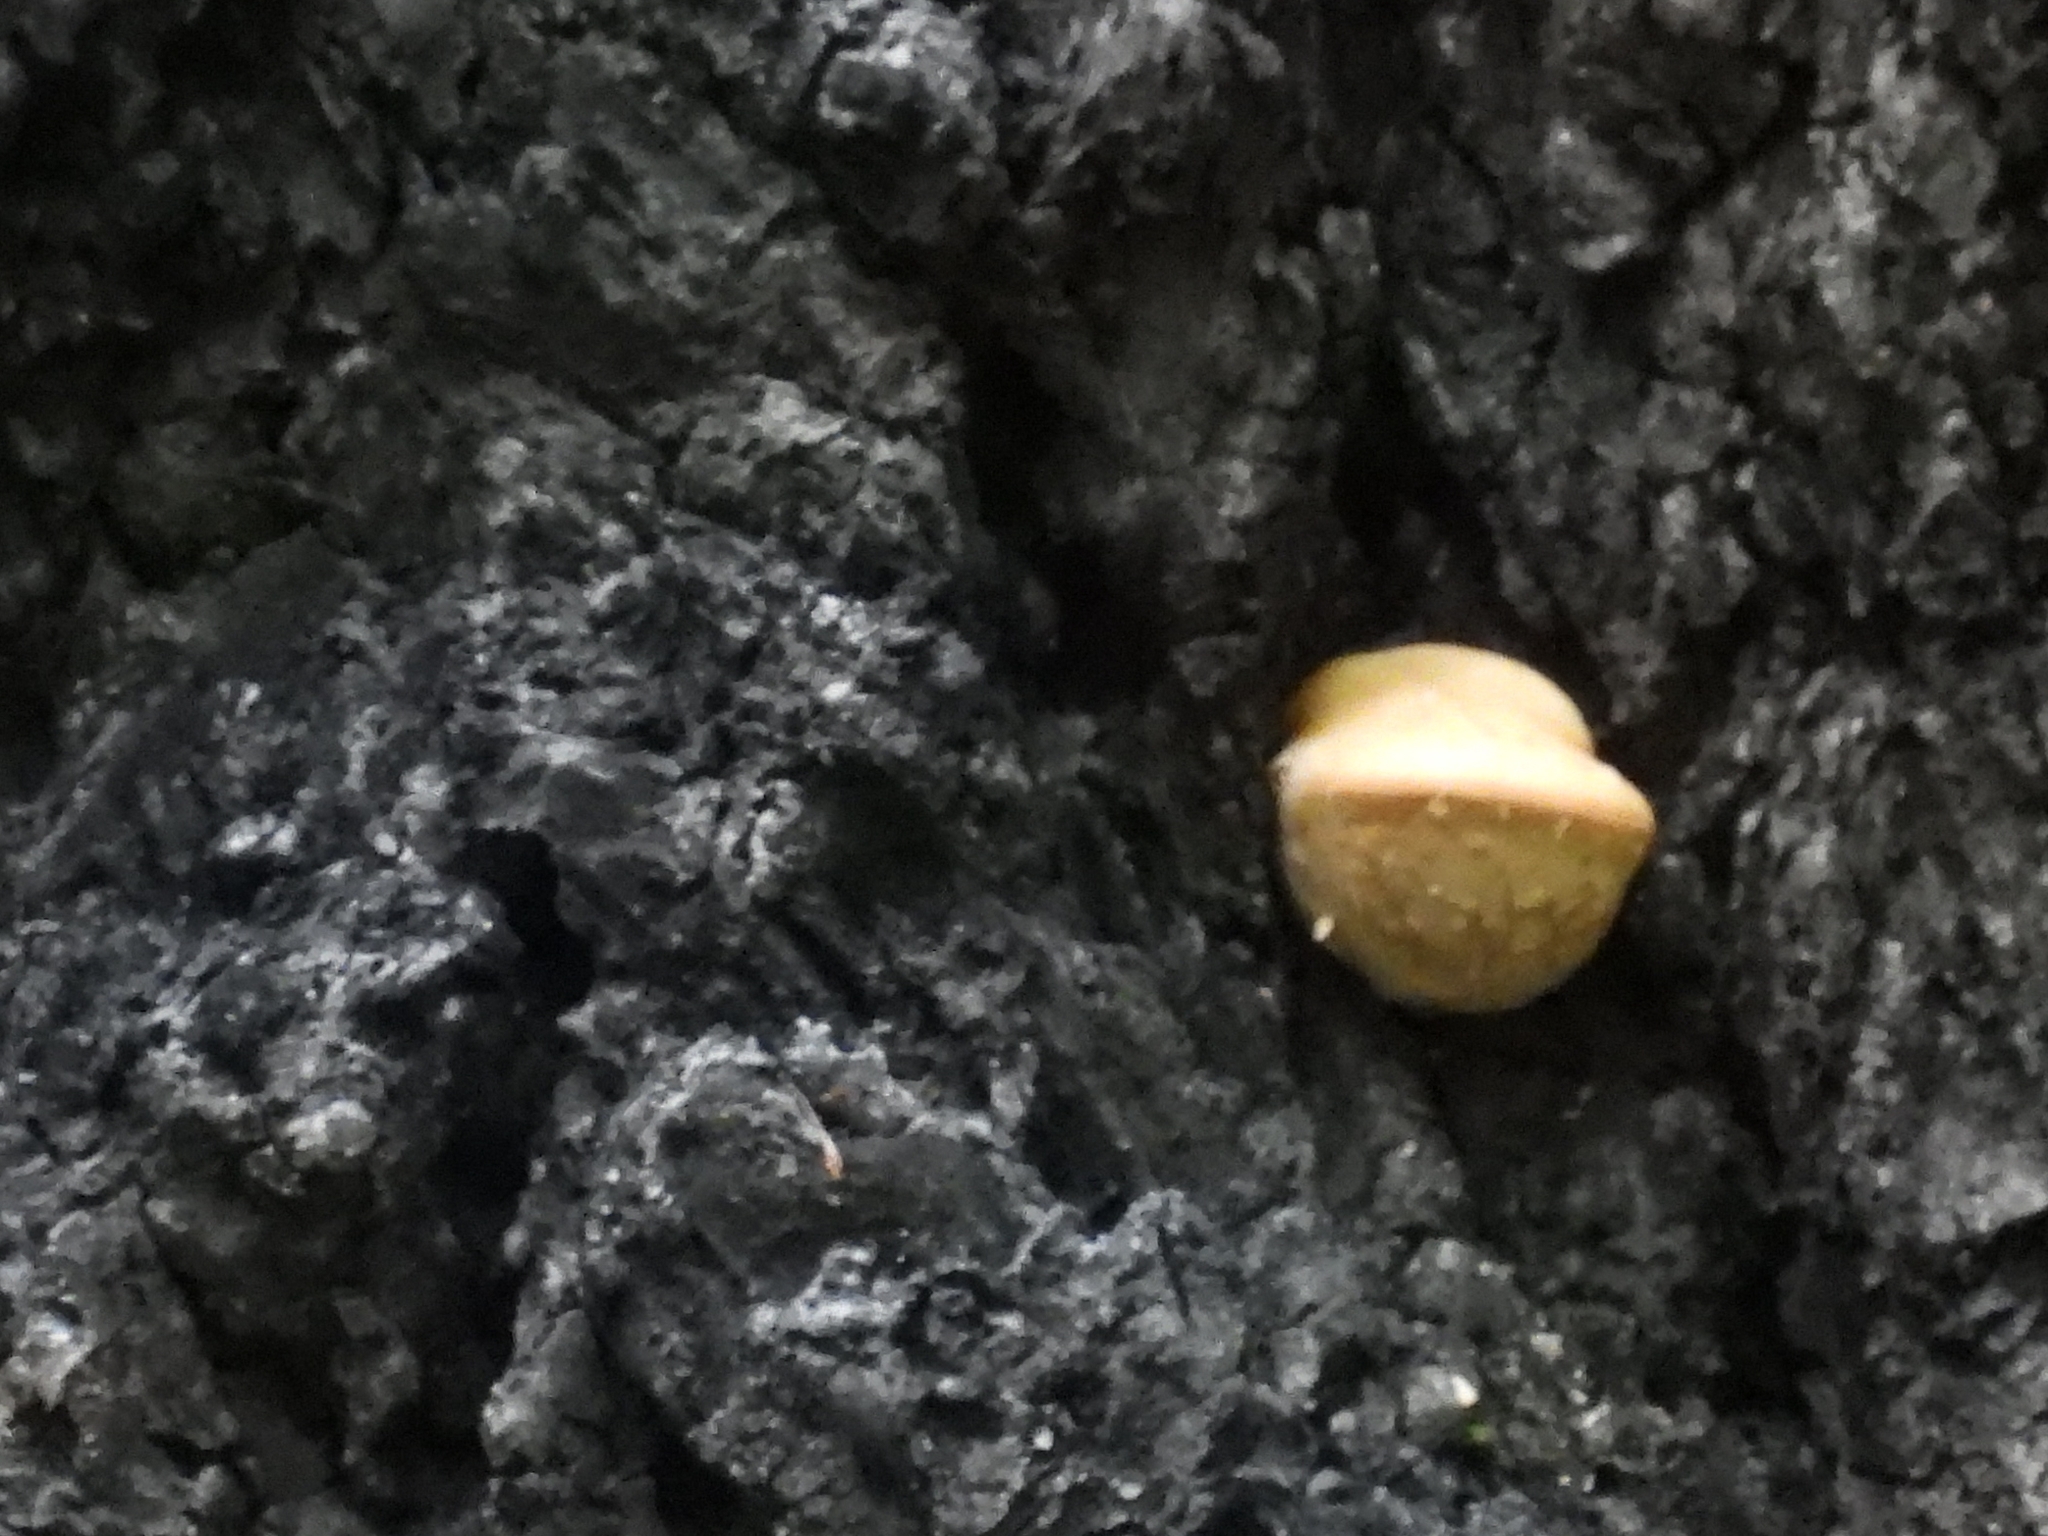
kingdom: Fungi
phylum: Basidiomycota
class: Agaricomycetes
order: Polyporales
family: Polyporaceae
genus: Cryptoporus
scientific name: Cryptoporus volvatus
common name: Veiled polypore
